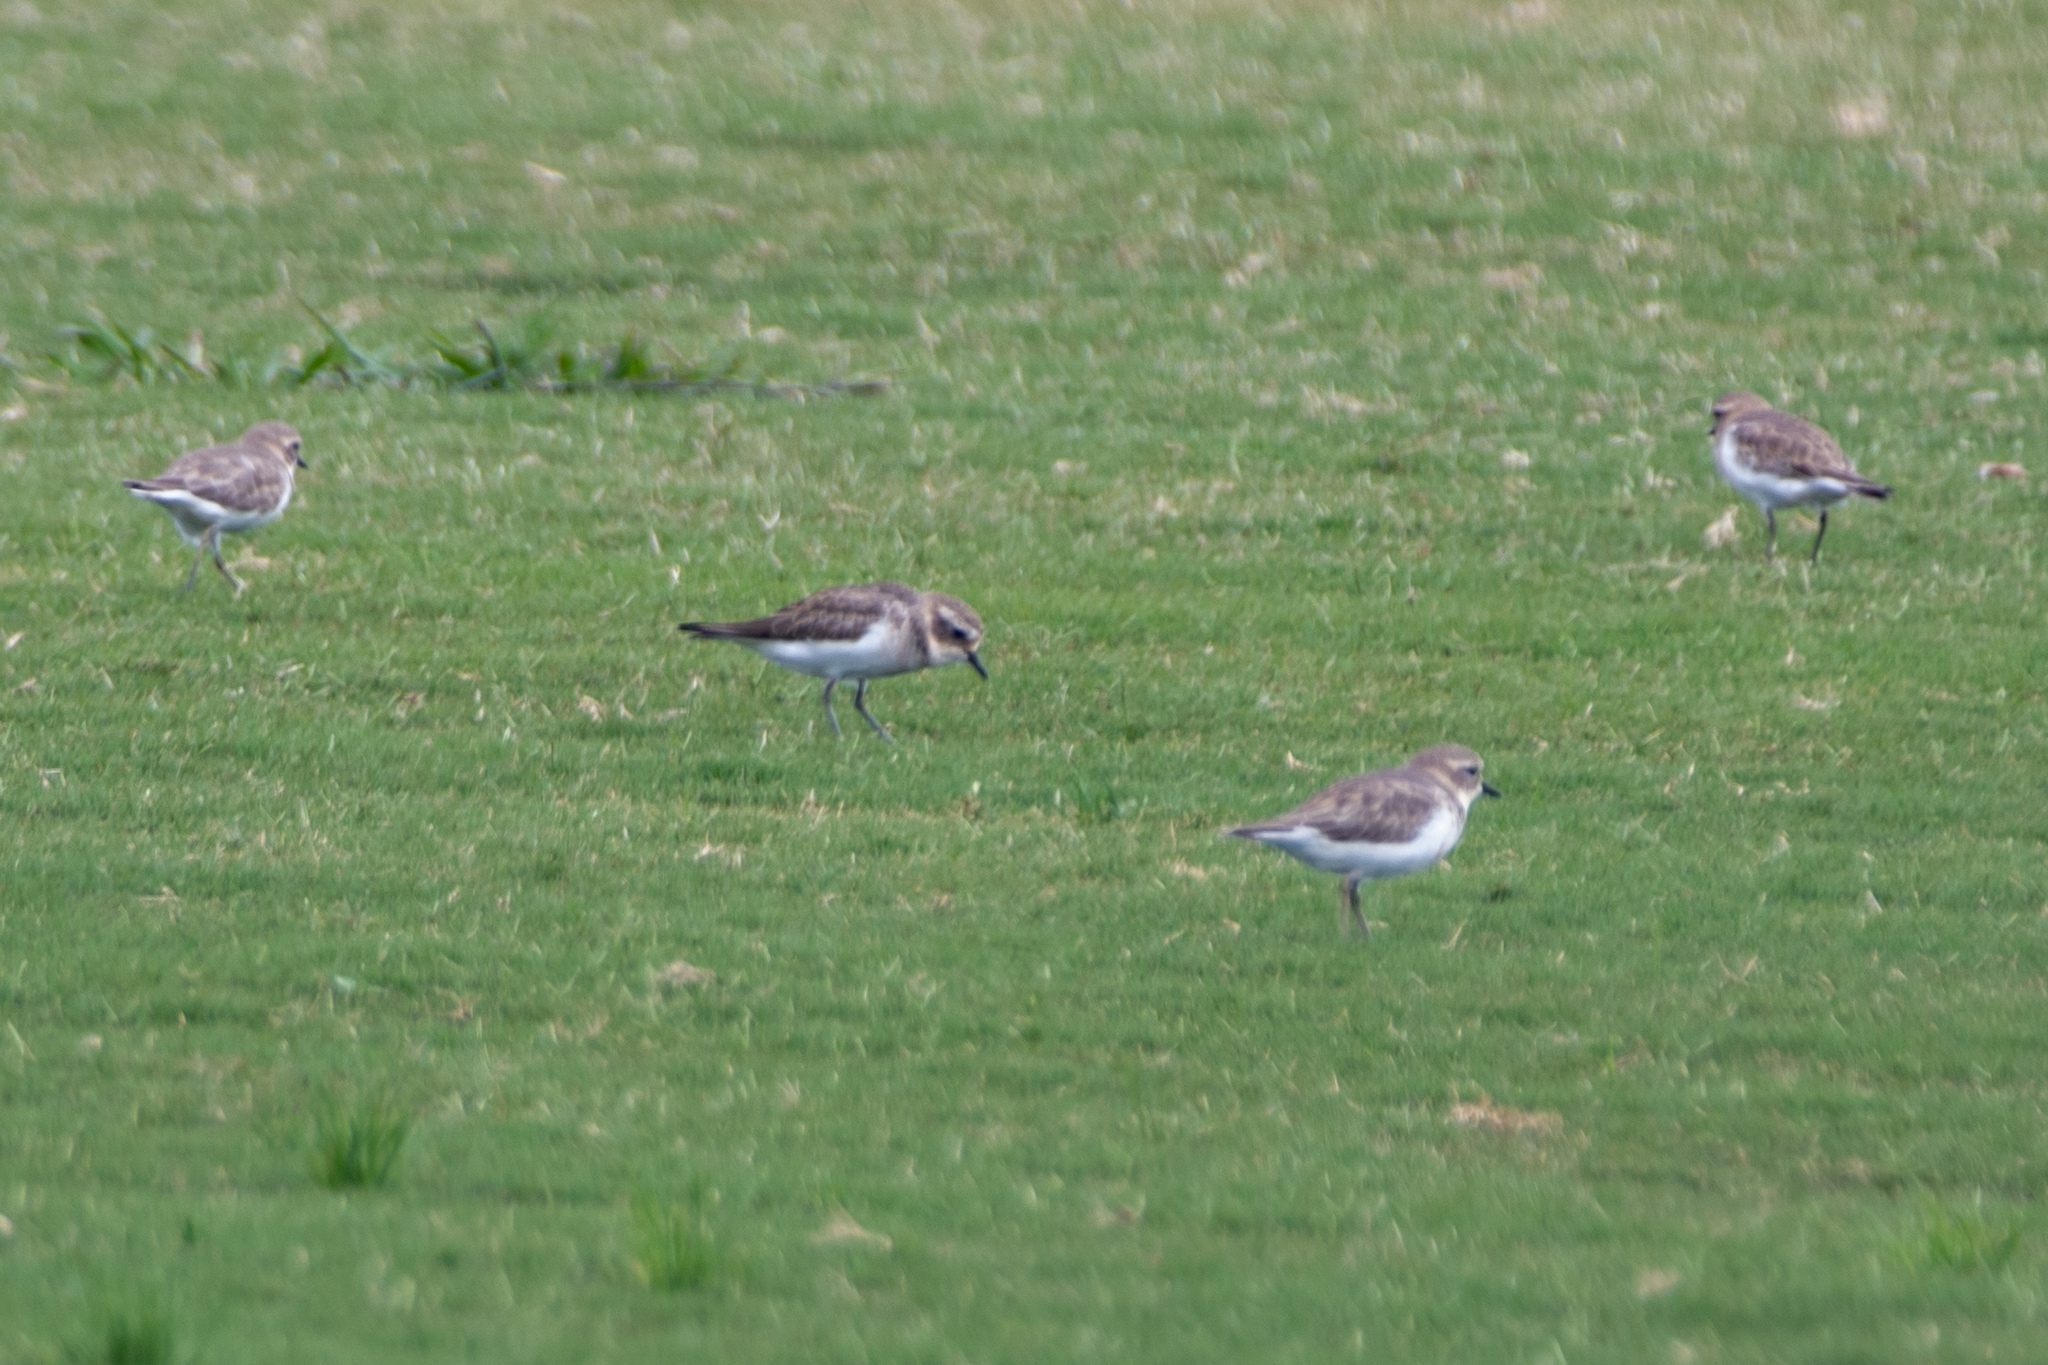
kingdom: Animalia
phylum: Chordata
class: Aves
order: Charadriiformes
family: Charadriidae
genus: Anarhynchus
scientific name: Anarhynchus
